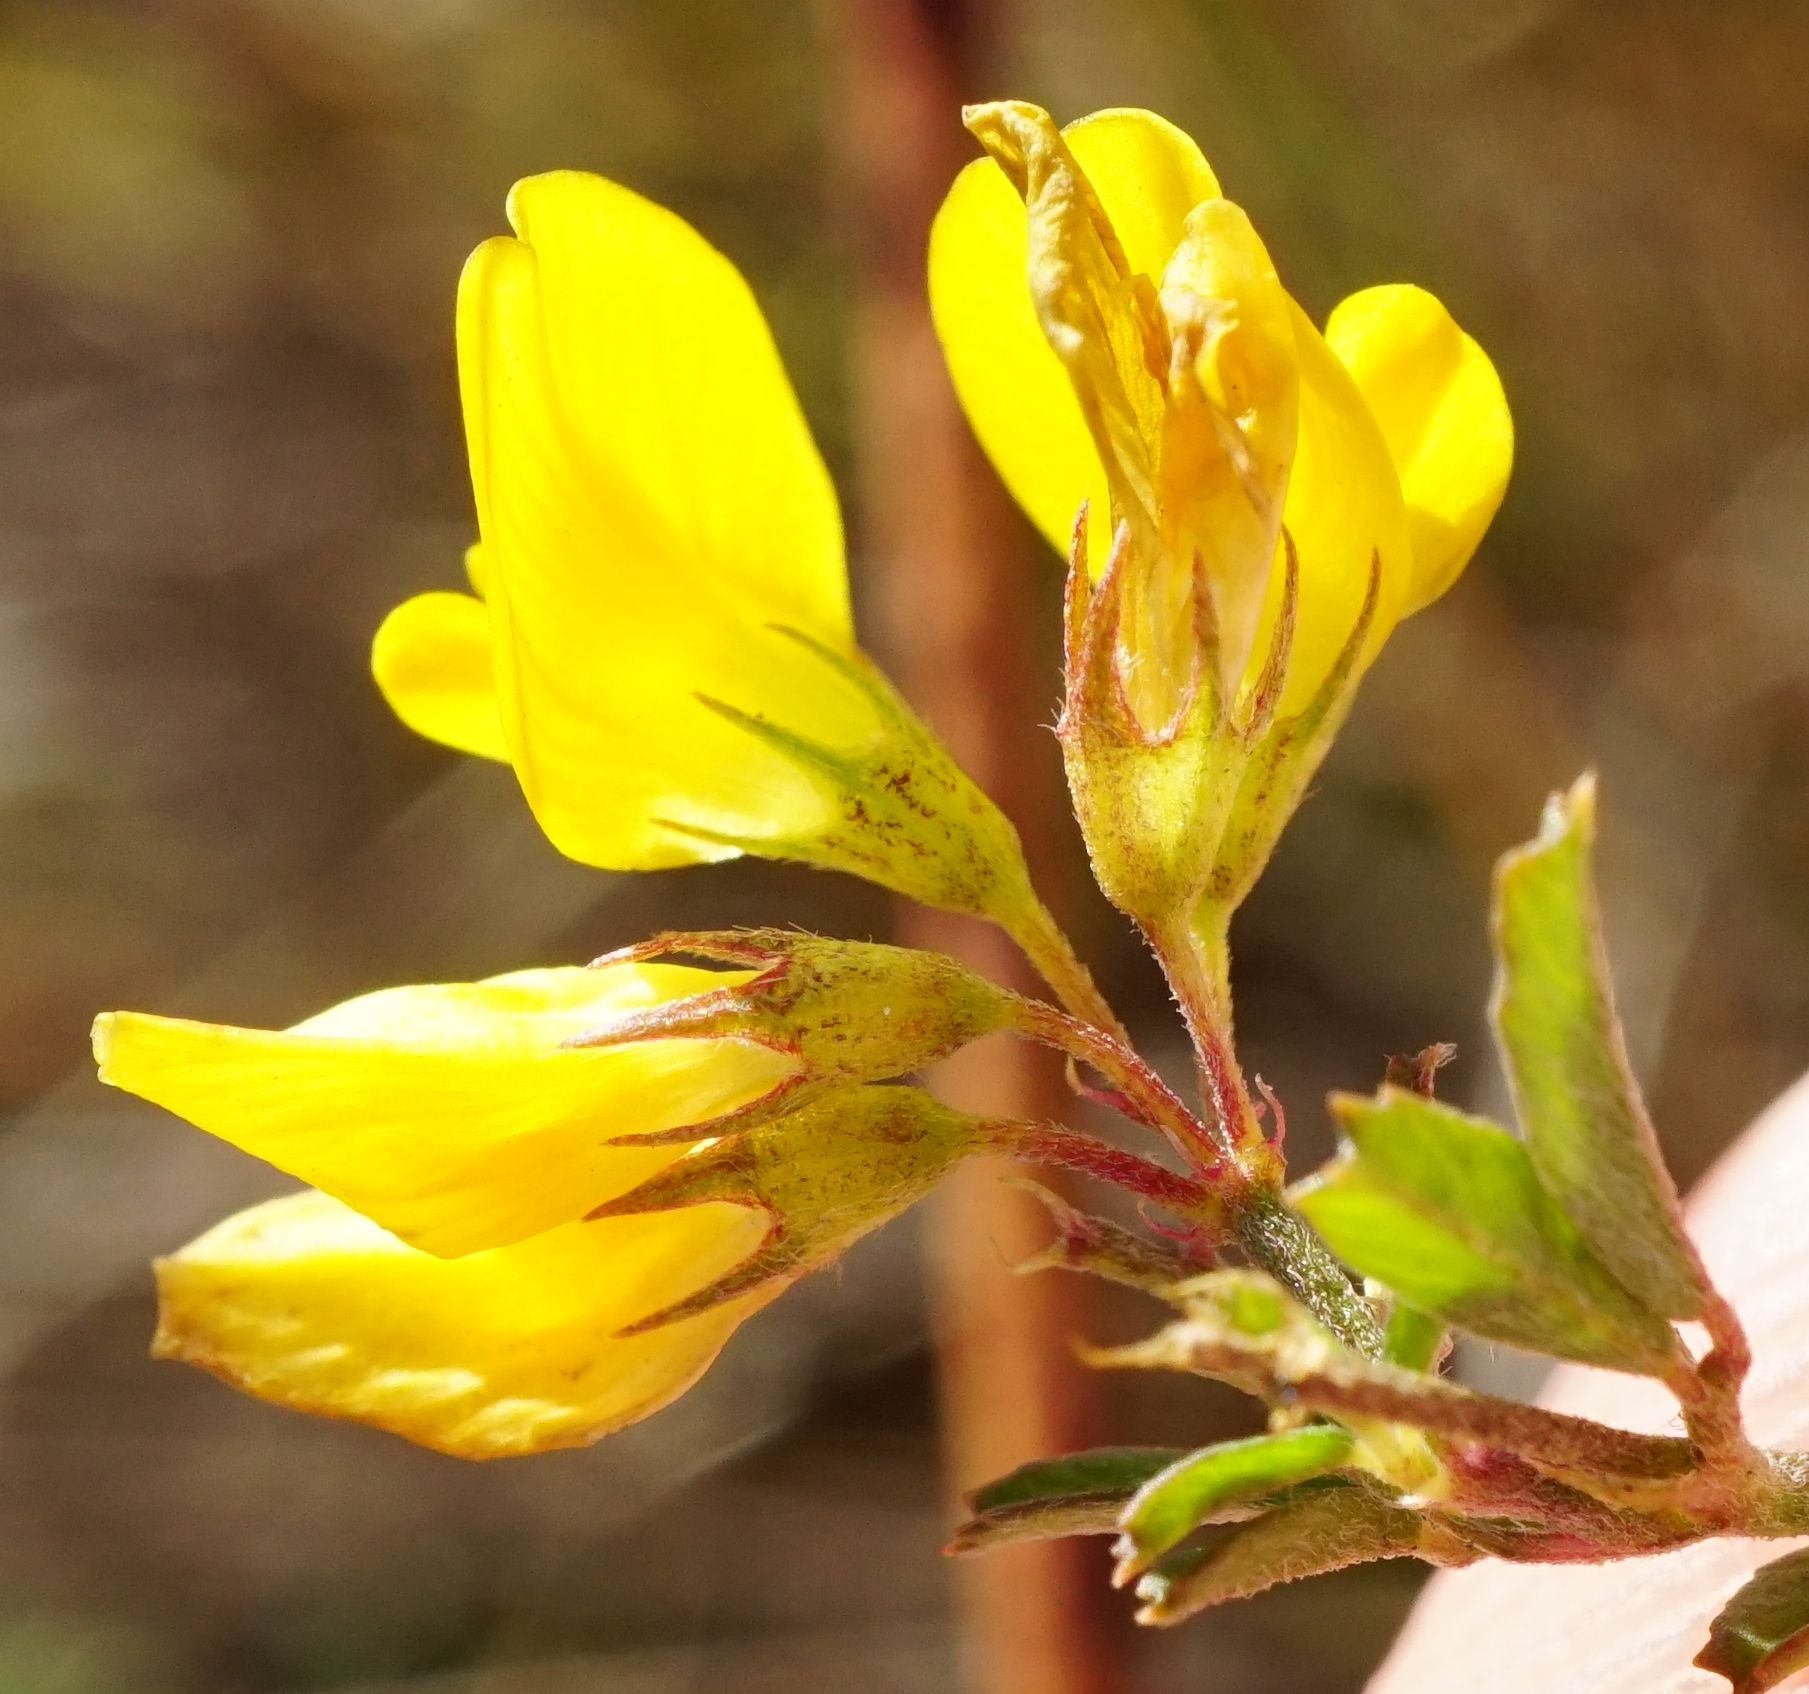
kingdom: Plantae
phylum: Tracheophyta
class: Magnoliopsida
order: Fabales
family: Fabaceae
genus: Medicago
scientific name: Medicago falcata
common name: Sickle medick
